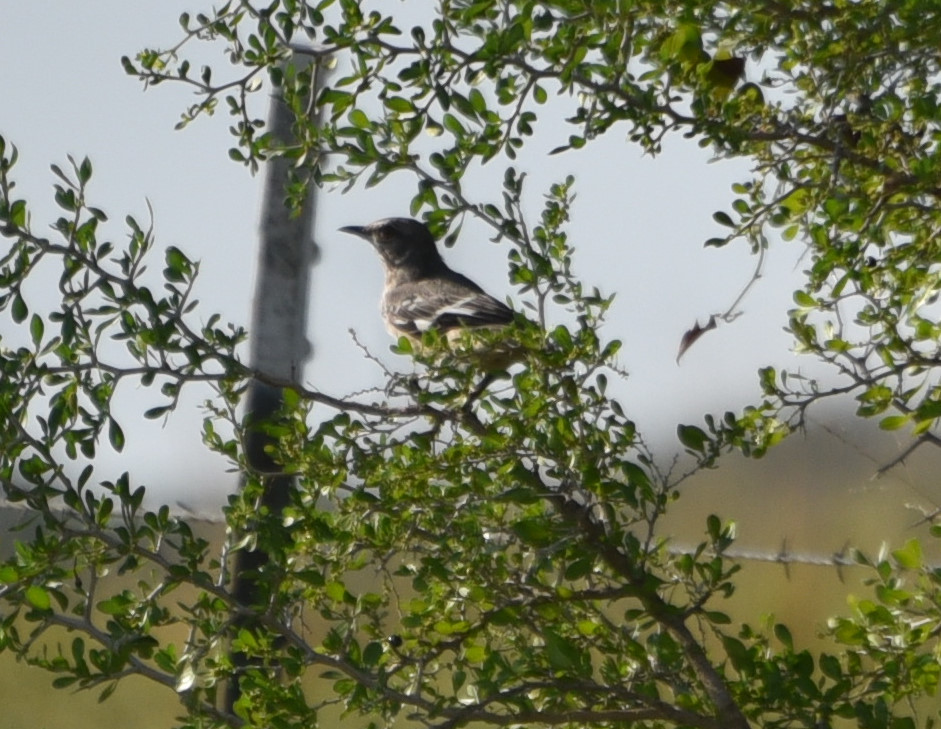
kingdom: Animalia
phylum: Chordata
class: Aves
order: Passeriformes
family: Mimidae
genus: Mimus
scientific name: Mimus polyglottos
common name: Northern mockingbird
